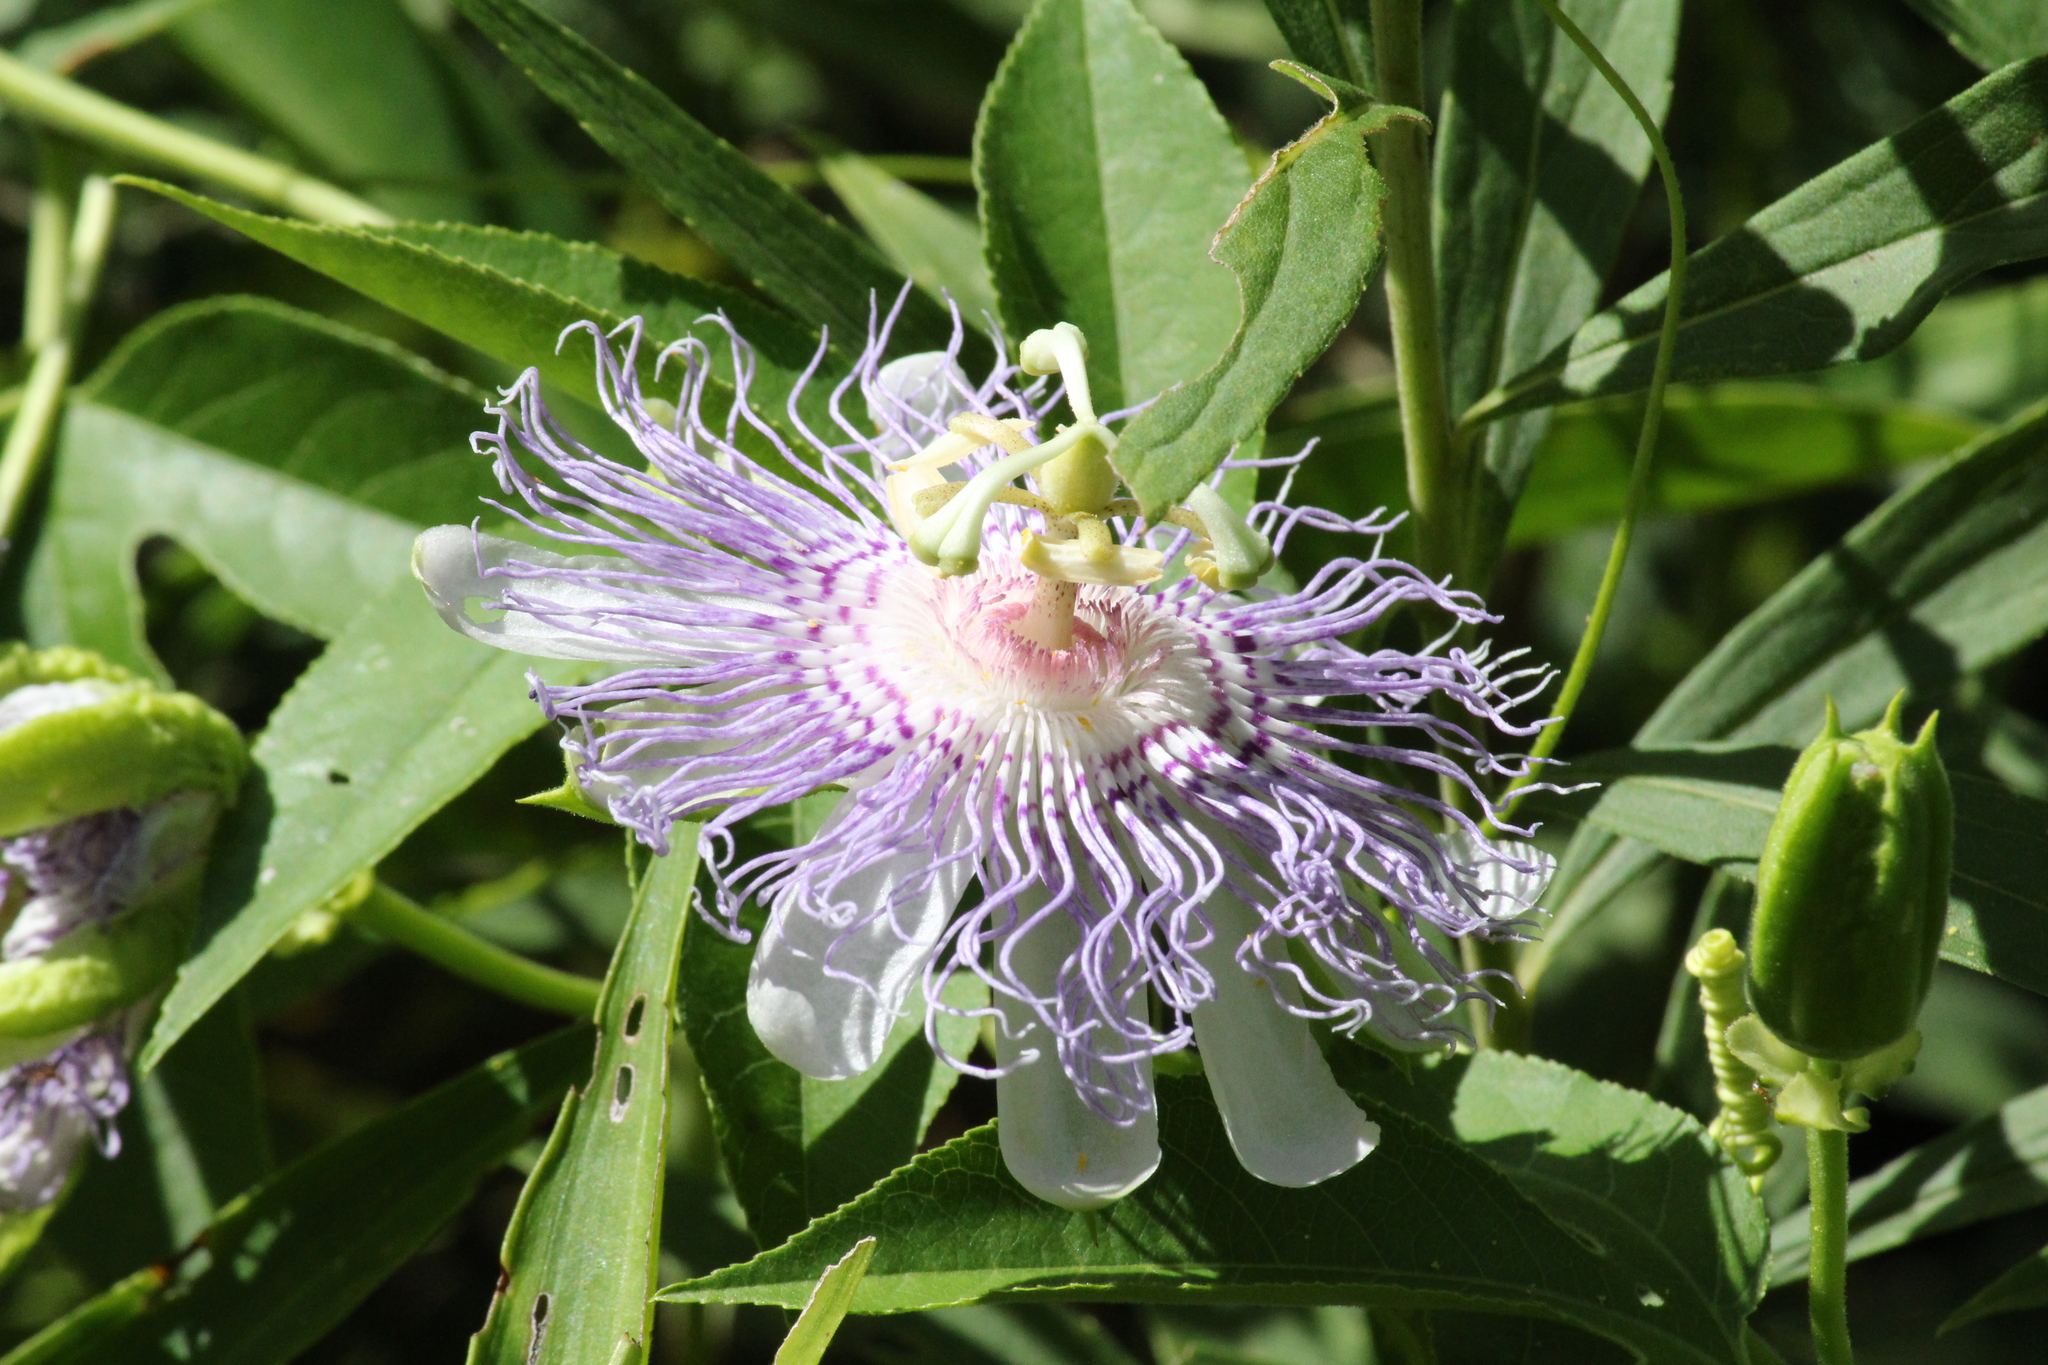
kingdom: Plantae
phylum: Tracheophyta
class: Magnoliopsida
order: Malpighiales
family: Passifloraceae
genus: Passiflora
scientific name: Passiflora incarnata
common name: Apricot-vine
